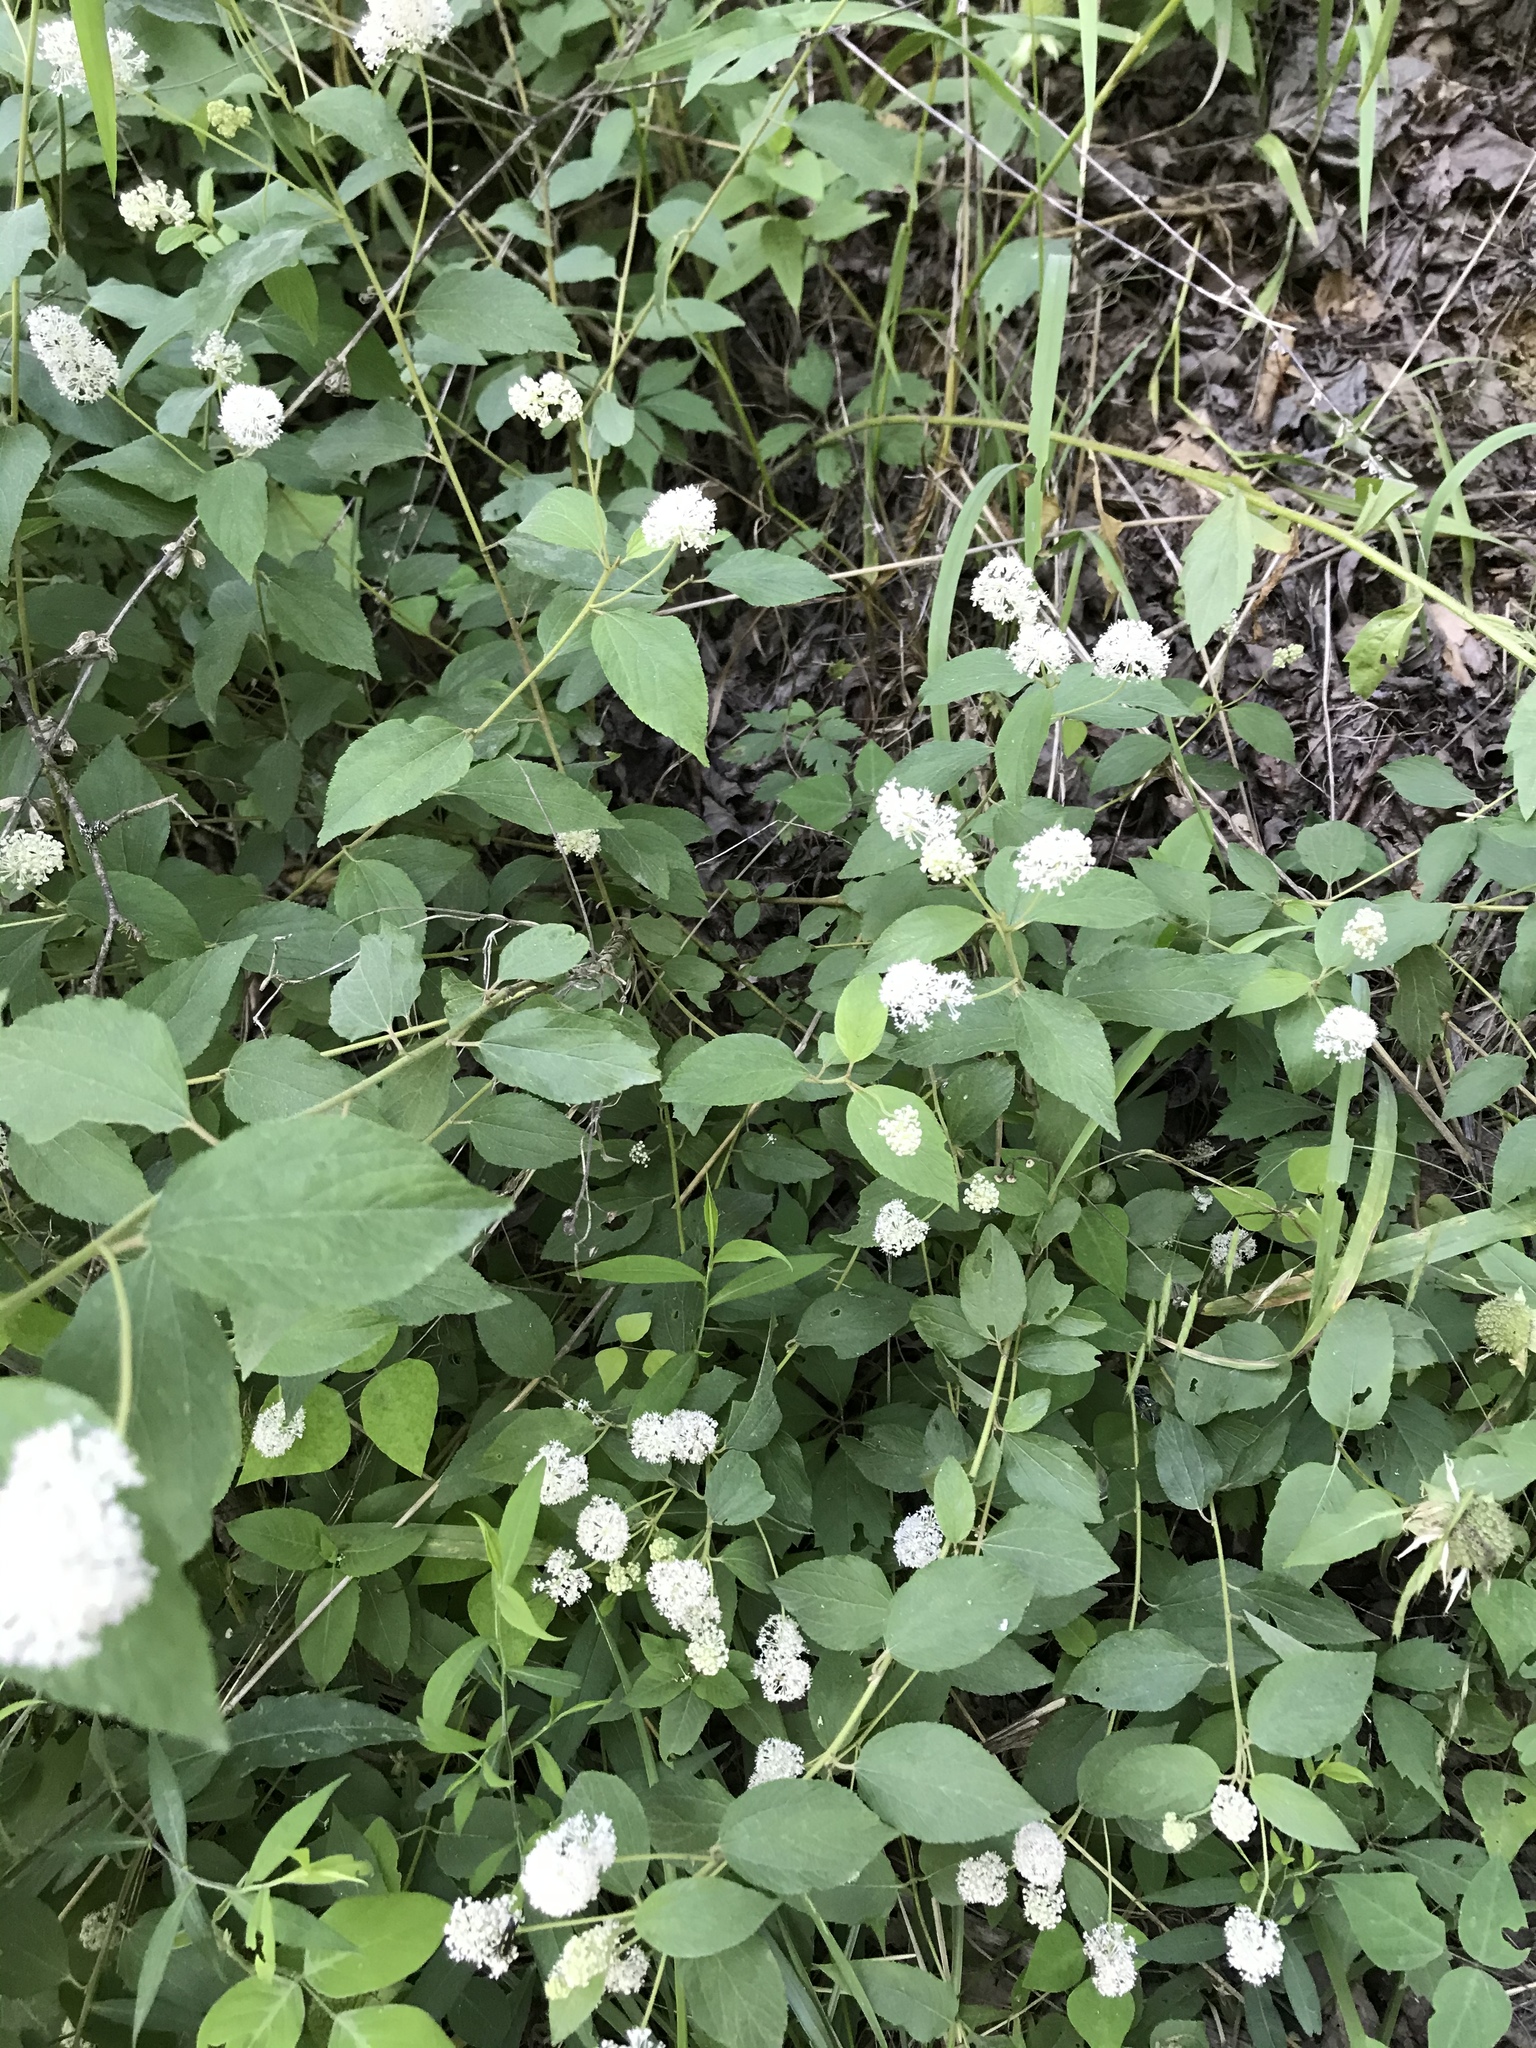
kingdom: Plantae
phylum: Tracheophyta
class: Magnoliopsida
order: Rosales
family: Rhamnaceae
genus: Ceanothus
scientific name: Ceanothus americanus
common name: Redroot
